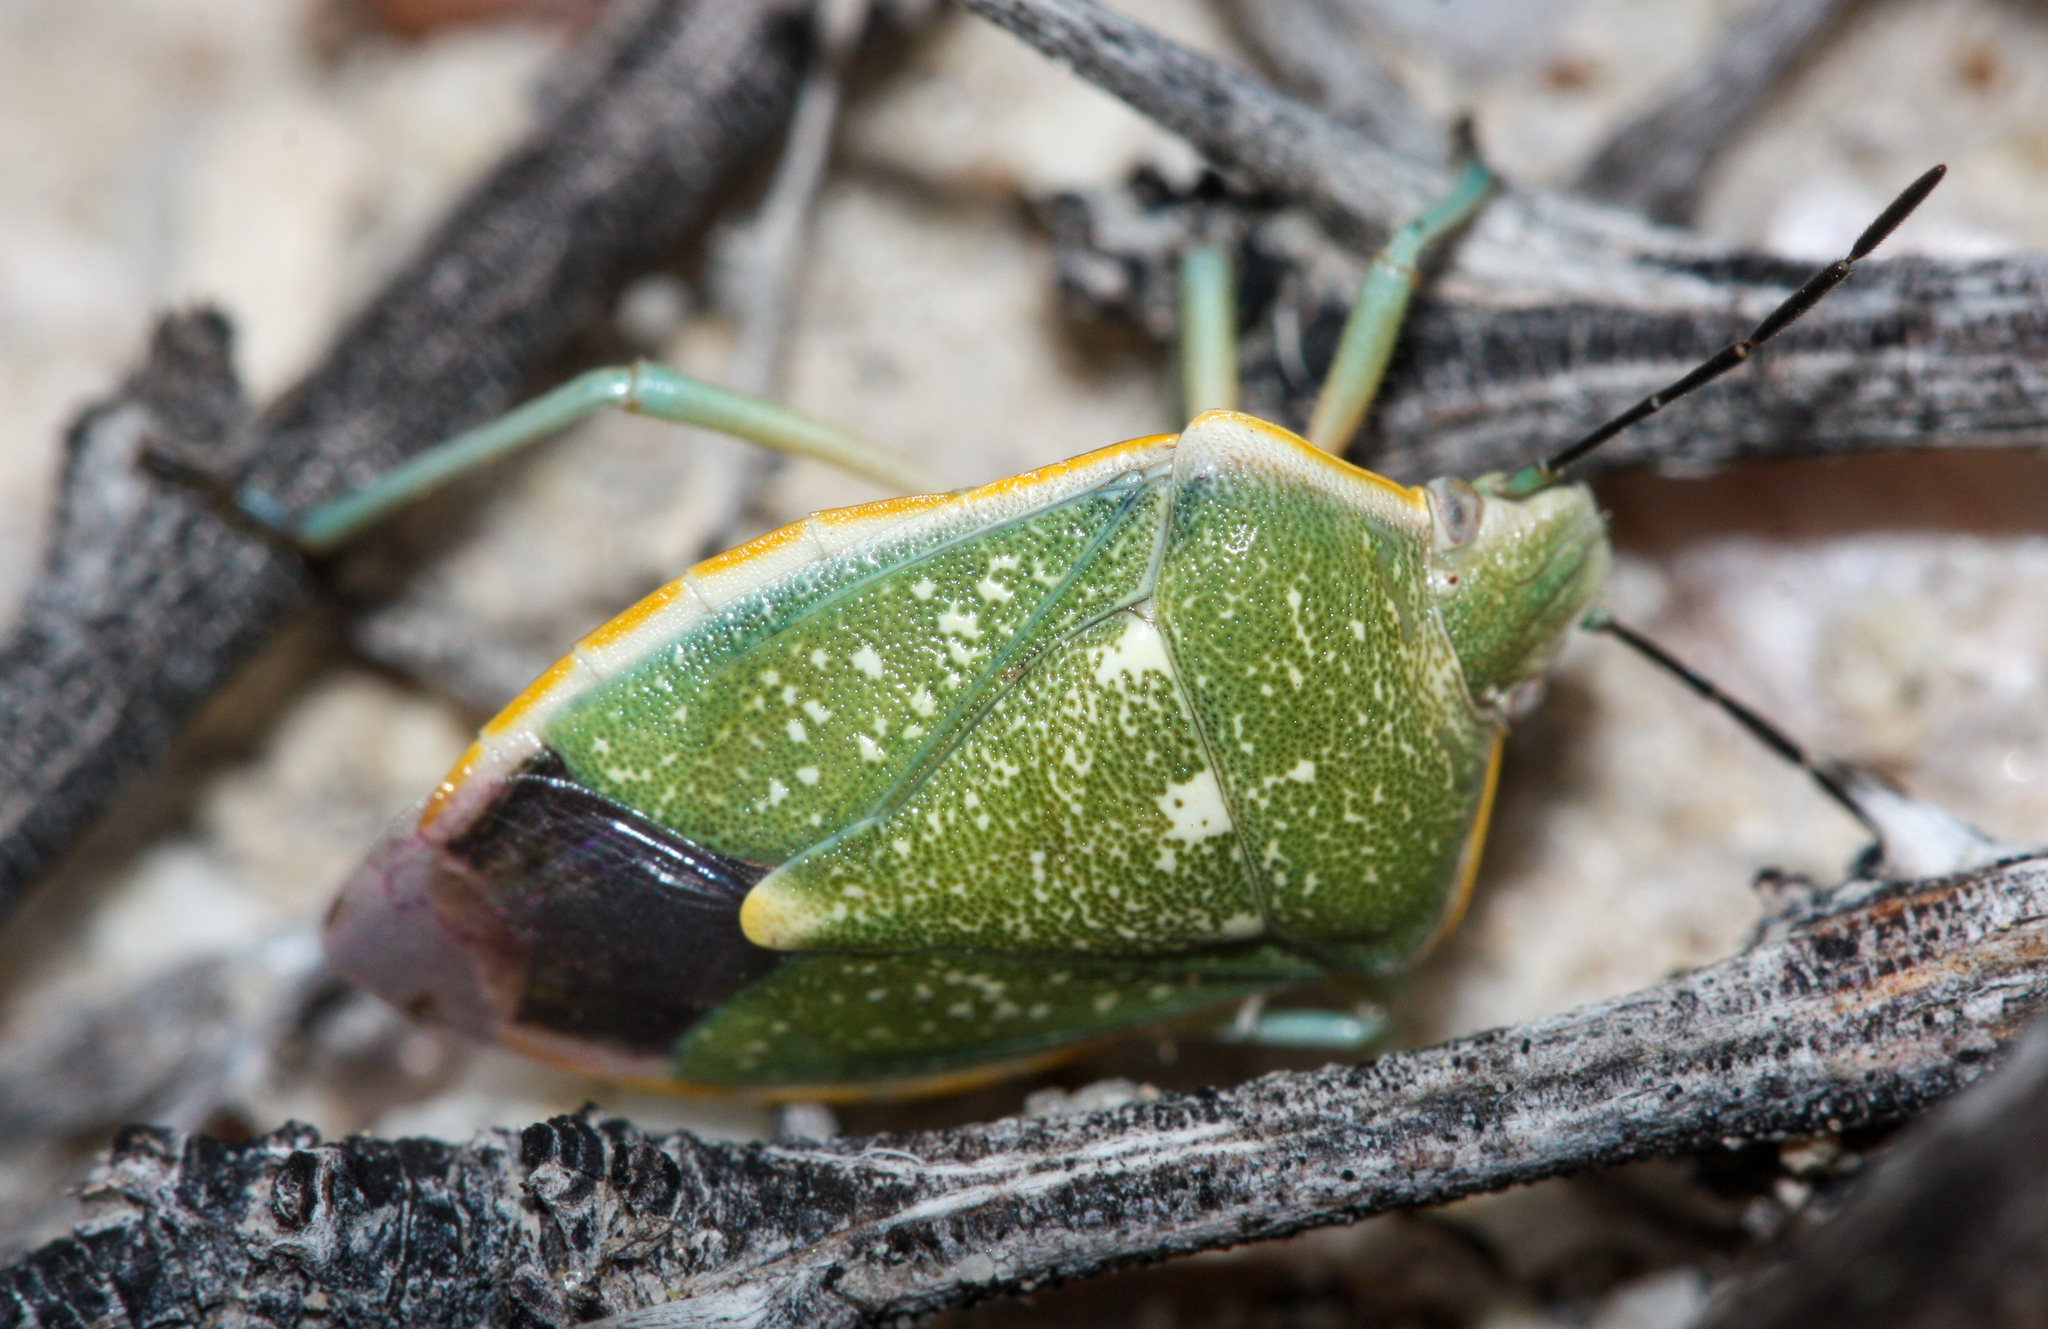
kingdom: Animalia
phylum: Arthropoda
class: Insecta
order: Hemiptera
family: Pentatomidae
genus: Chlorochroa
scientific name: Chlorochroa sayi
